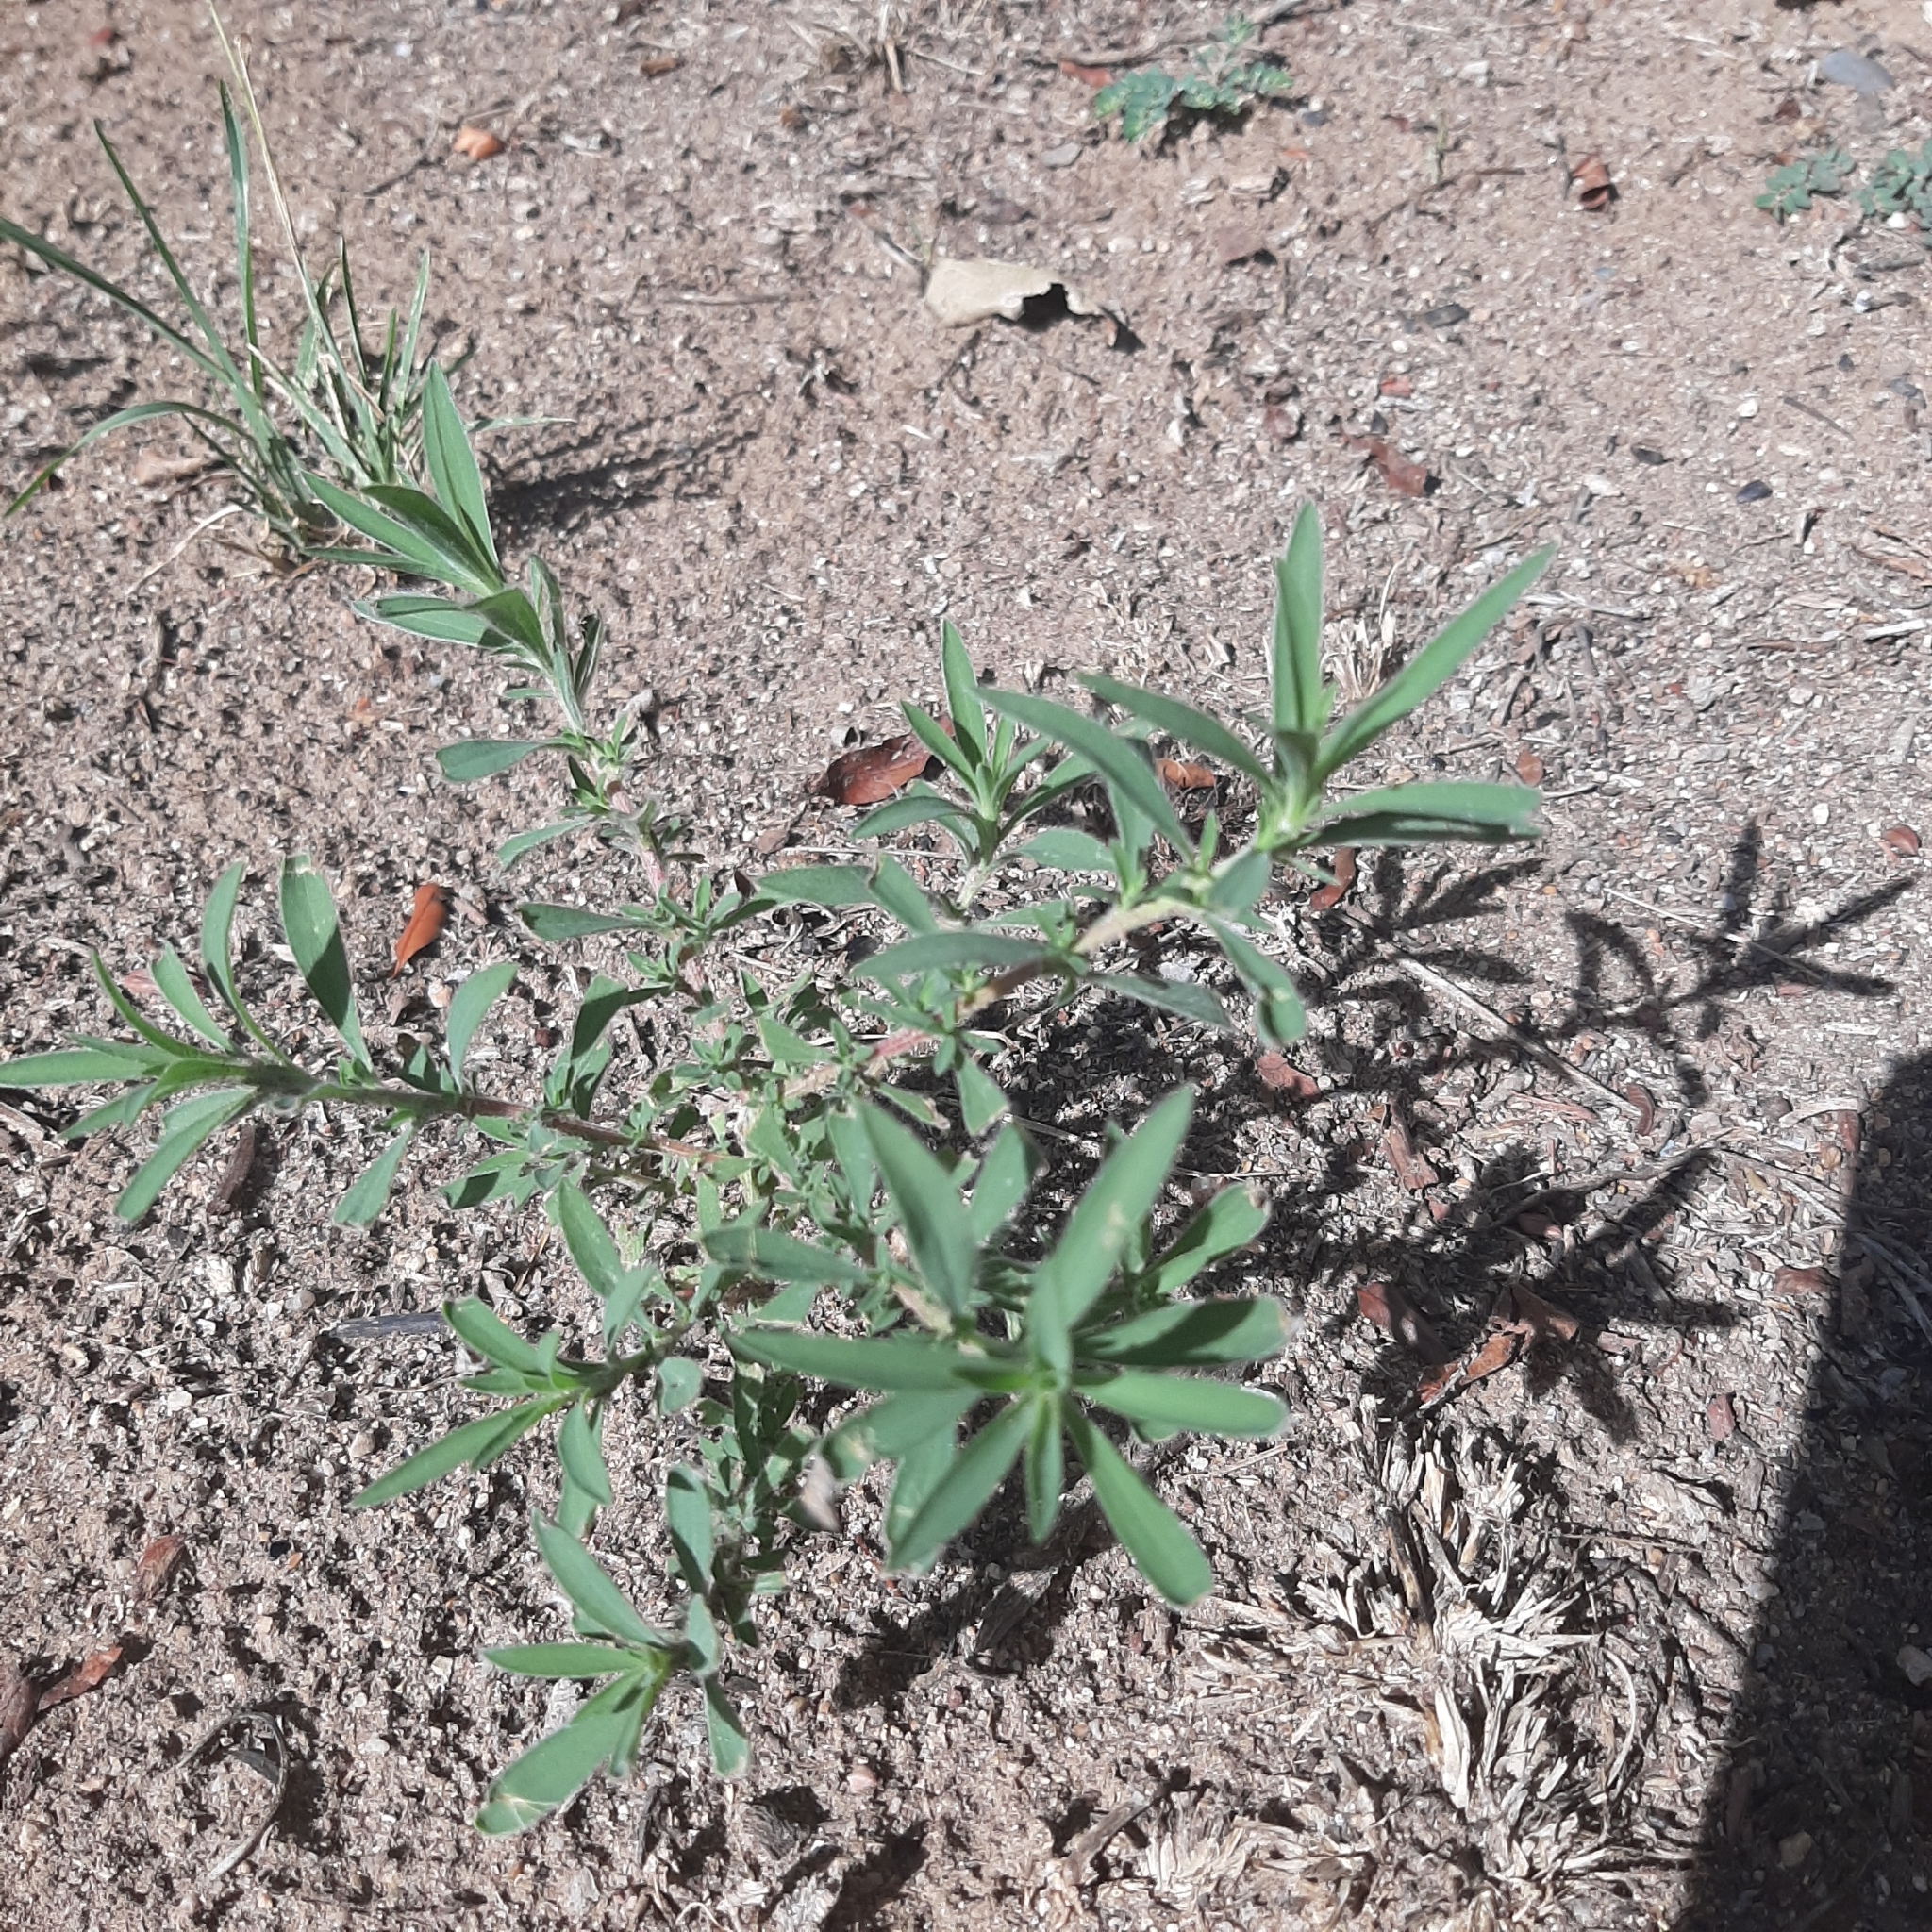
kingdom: Plantae
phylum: Tracheophyta
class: Magnoliopsida
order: Caryophyllales
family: Amaranthaceae
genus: Bassia
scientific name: Bassia scoparia
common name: Belvedere
